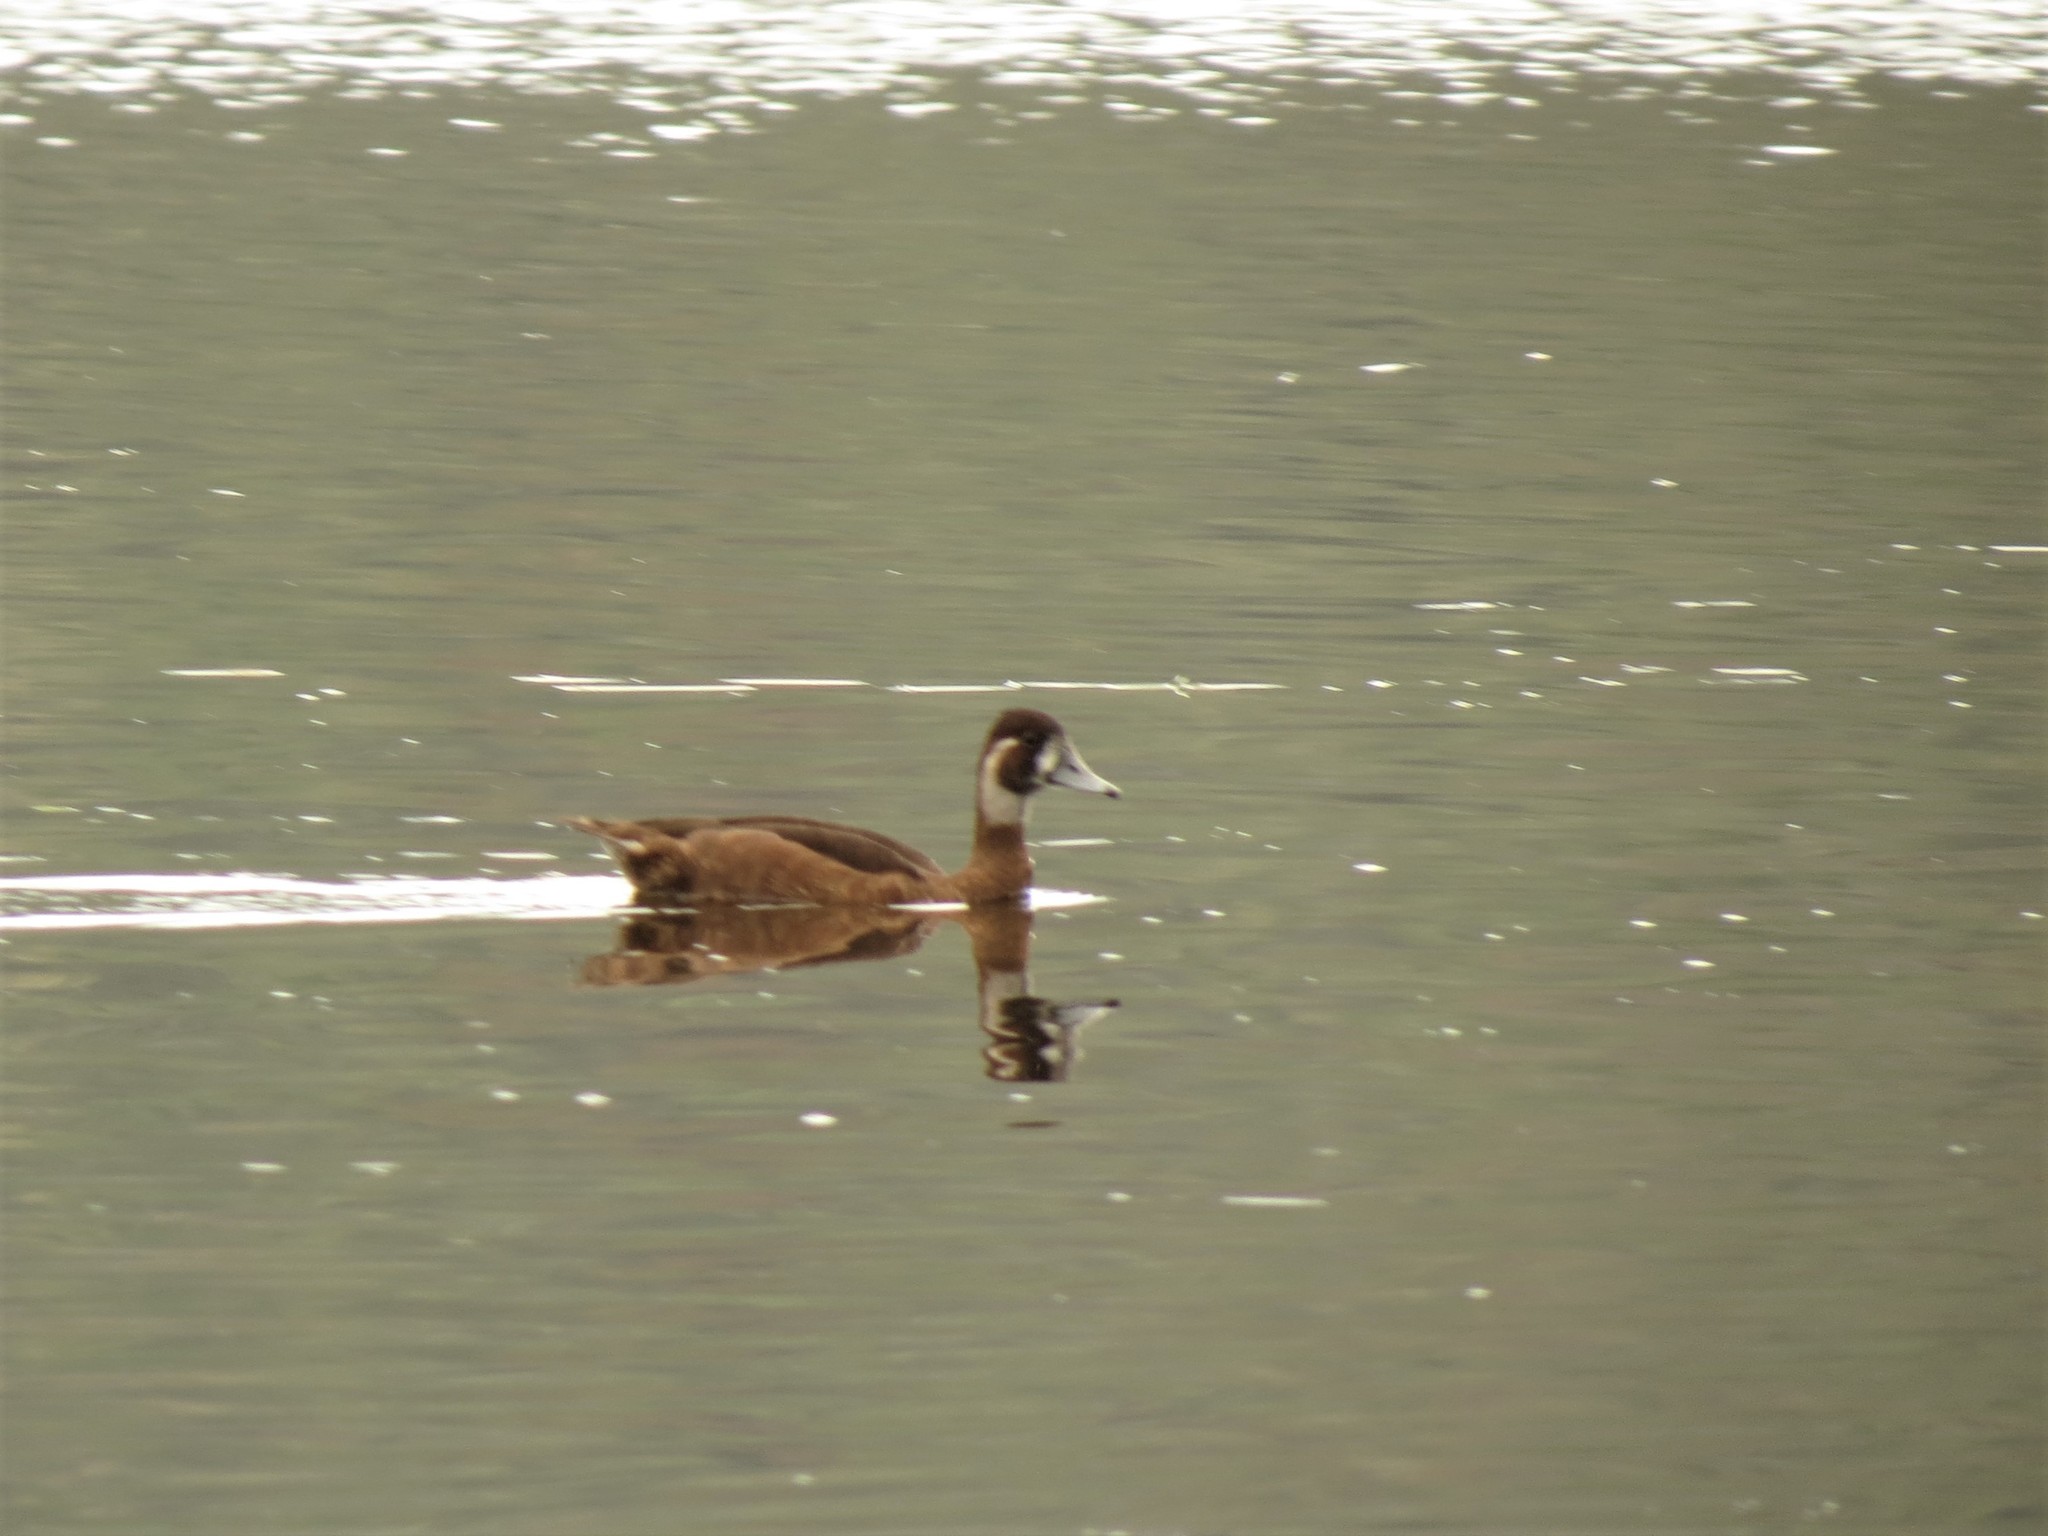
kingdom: Animalia
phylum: Chordata
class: Aves
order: Anseriformes
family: Anatidae
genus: Netta
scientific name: Netta erythrophthalma
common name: Southern pochard
